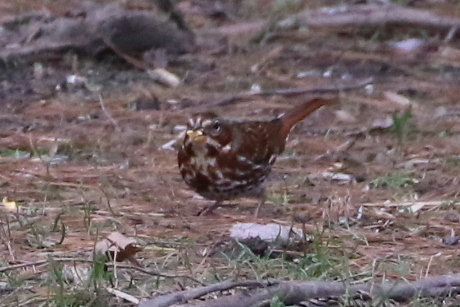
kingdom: Animalia
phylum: Chordata
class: Aves
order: Passeriformes
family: Passerellidae
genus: Passerella
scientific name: Passerella iliaca
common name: Fox sparrow
